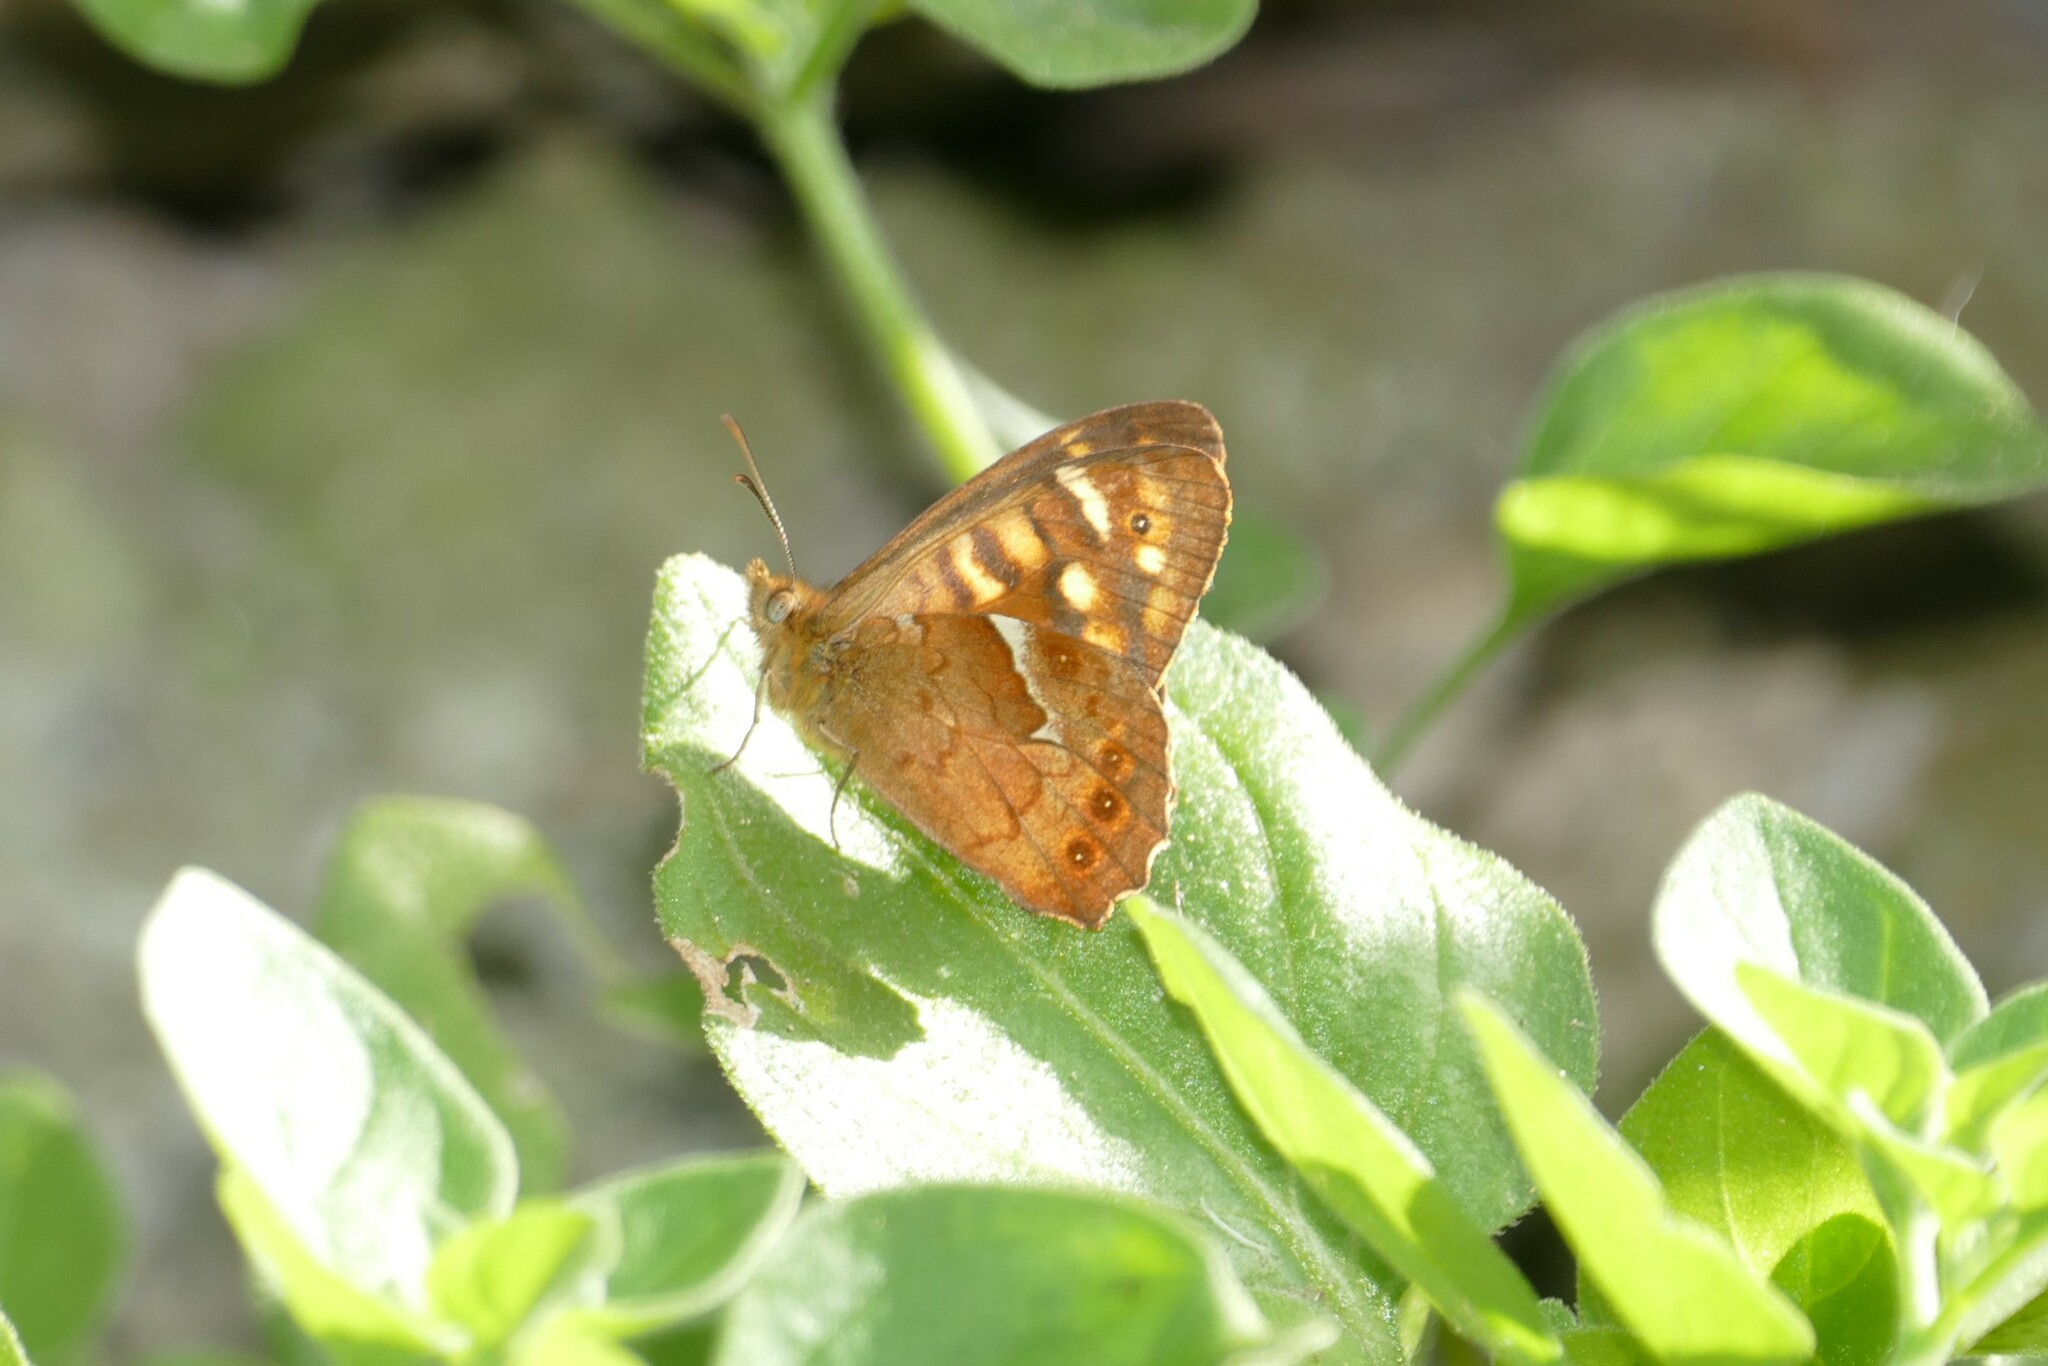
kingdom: Animalia
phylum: Arthropoda
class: Insecta
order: Lepidoptera
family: Nymphalidae
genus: Pararge
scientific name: Pararge aegeria
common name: Speckled wood
